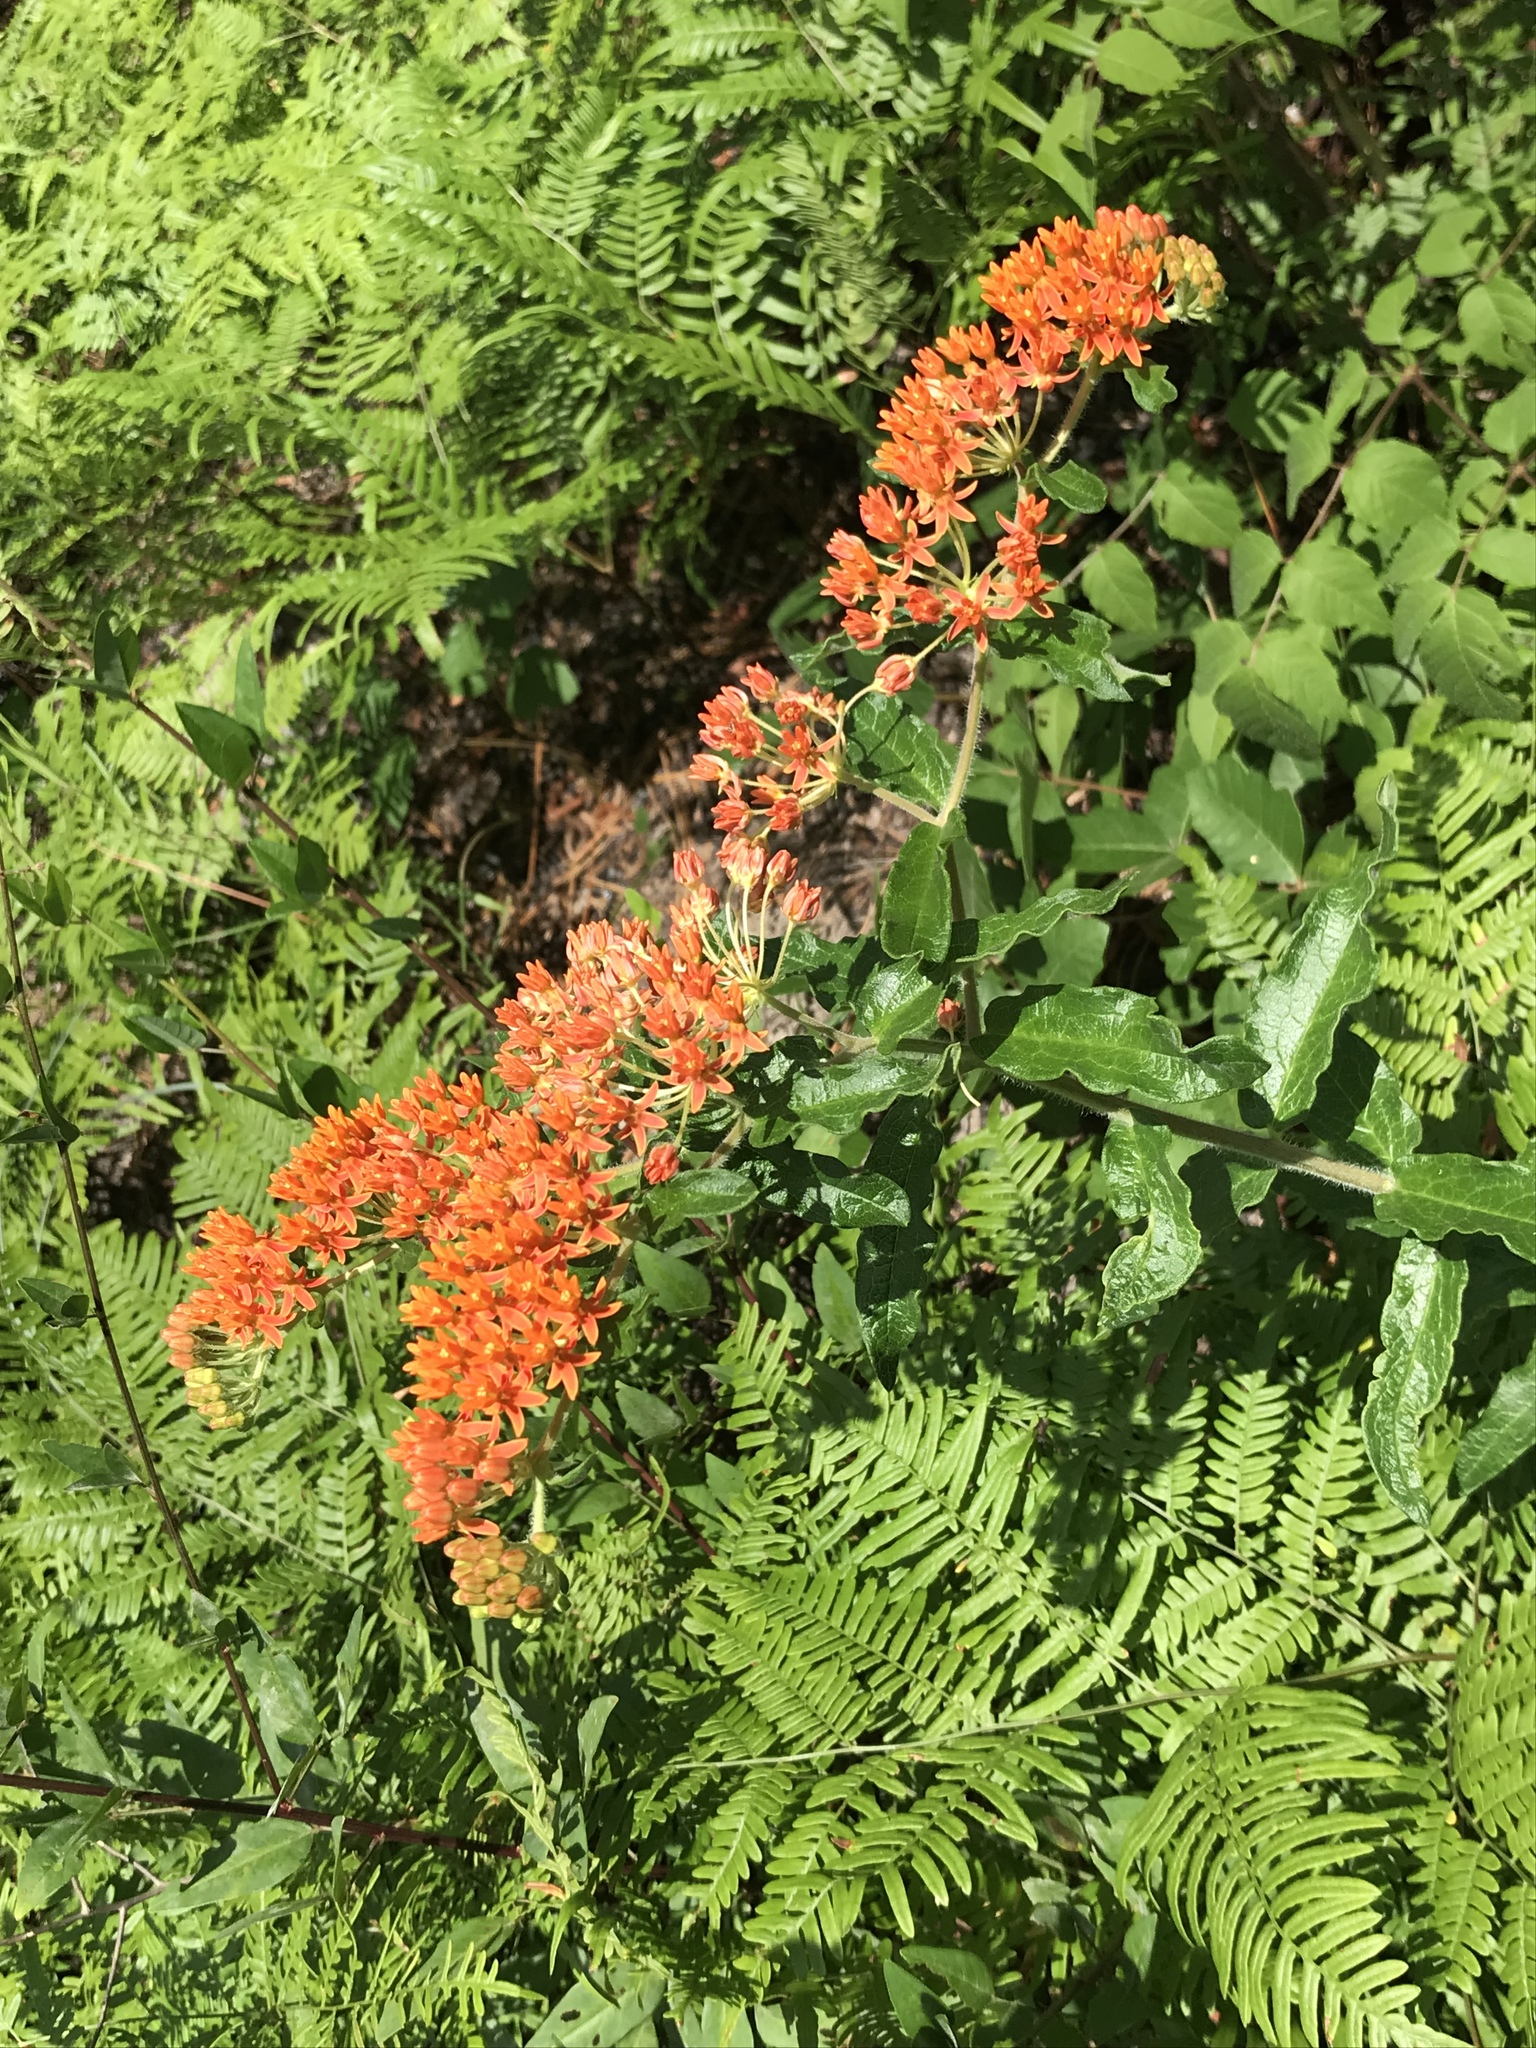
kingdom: Plantae
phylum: Tracheophyta
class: Magnoliopsida
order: Gentianales
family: Apocynaceae
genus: Asclepias
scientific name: Asclepias tuberosa
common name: Butterfly milkweed
